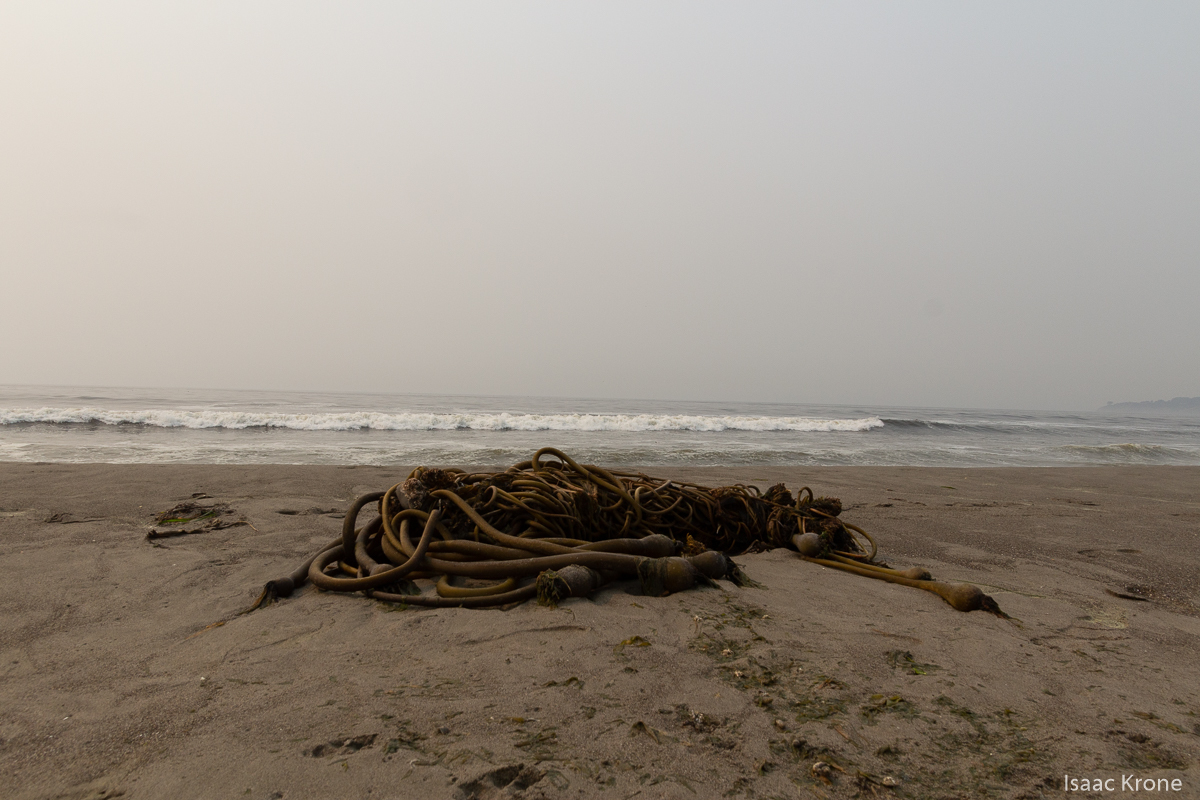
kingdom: Chromista
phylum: Ochrophyta
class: Phaeophyceae
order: Laminariales
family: Laminariaceae
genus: Nereocystis
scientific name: Nereocystis luetkeana
